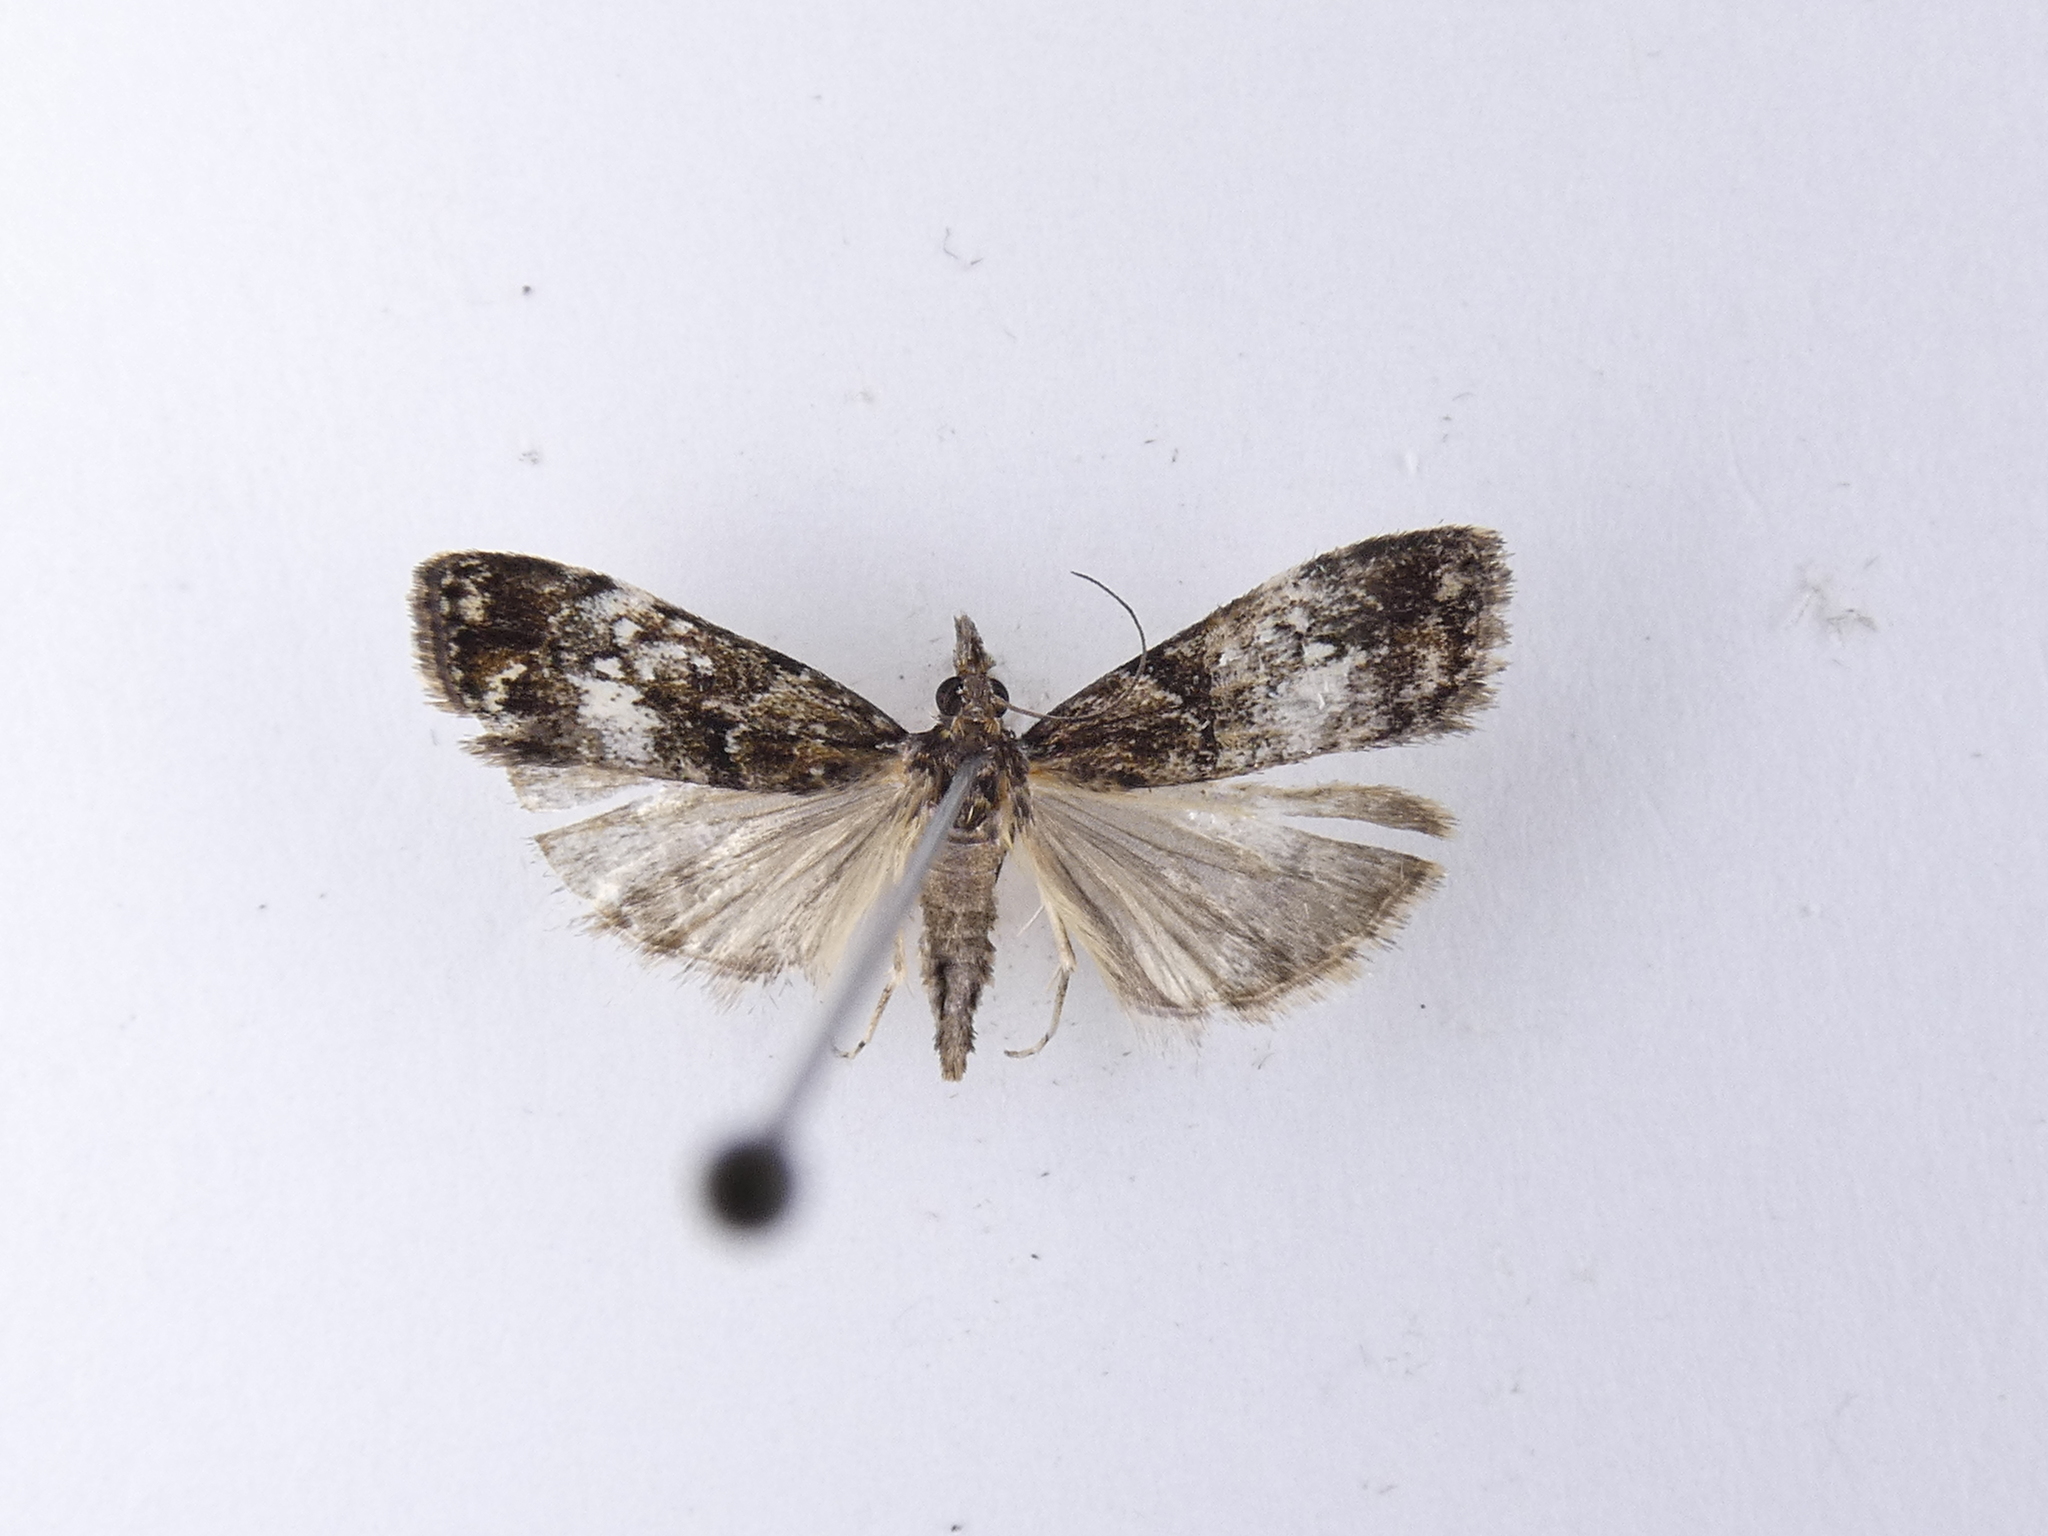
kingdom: Animalia
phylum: Arthropoda
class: Insecta
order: Lepidoptera
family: Crambidae
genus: Eudonia
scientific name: Eudonia minualis
